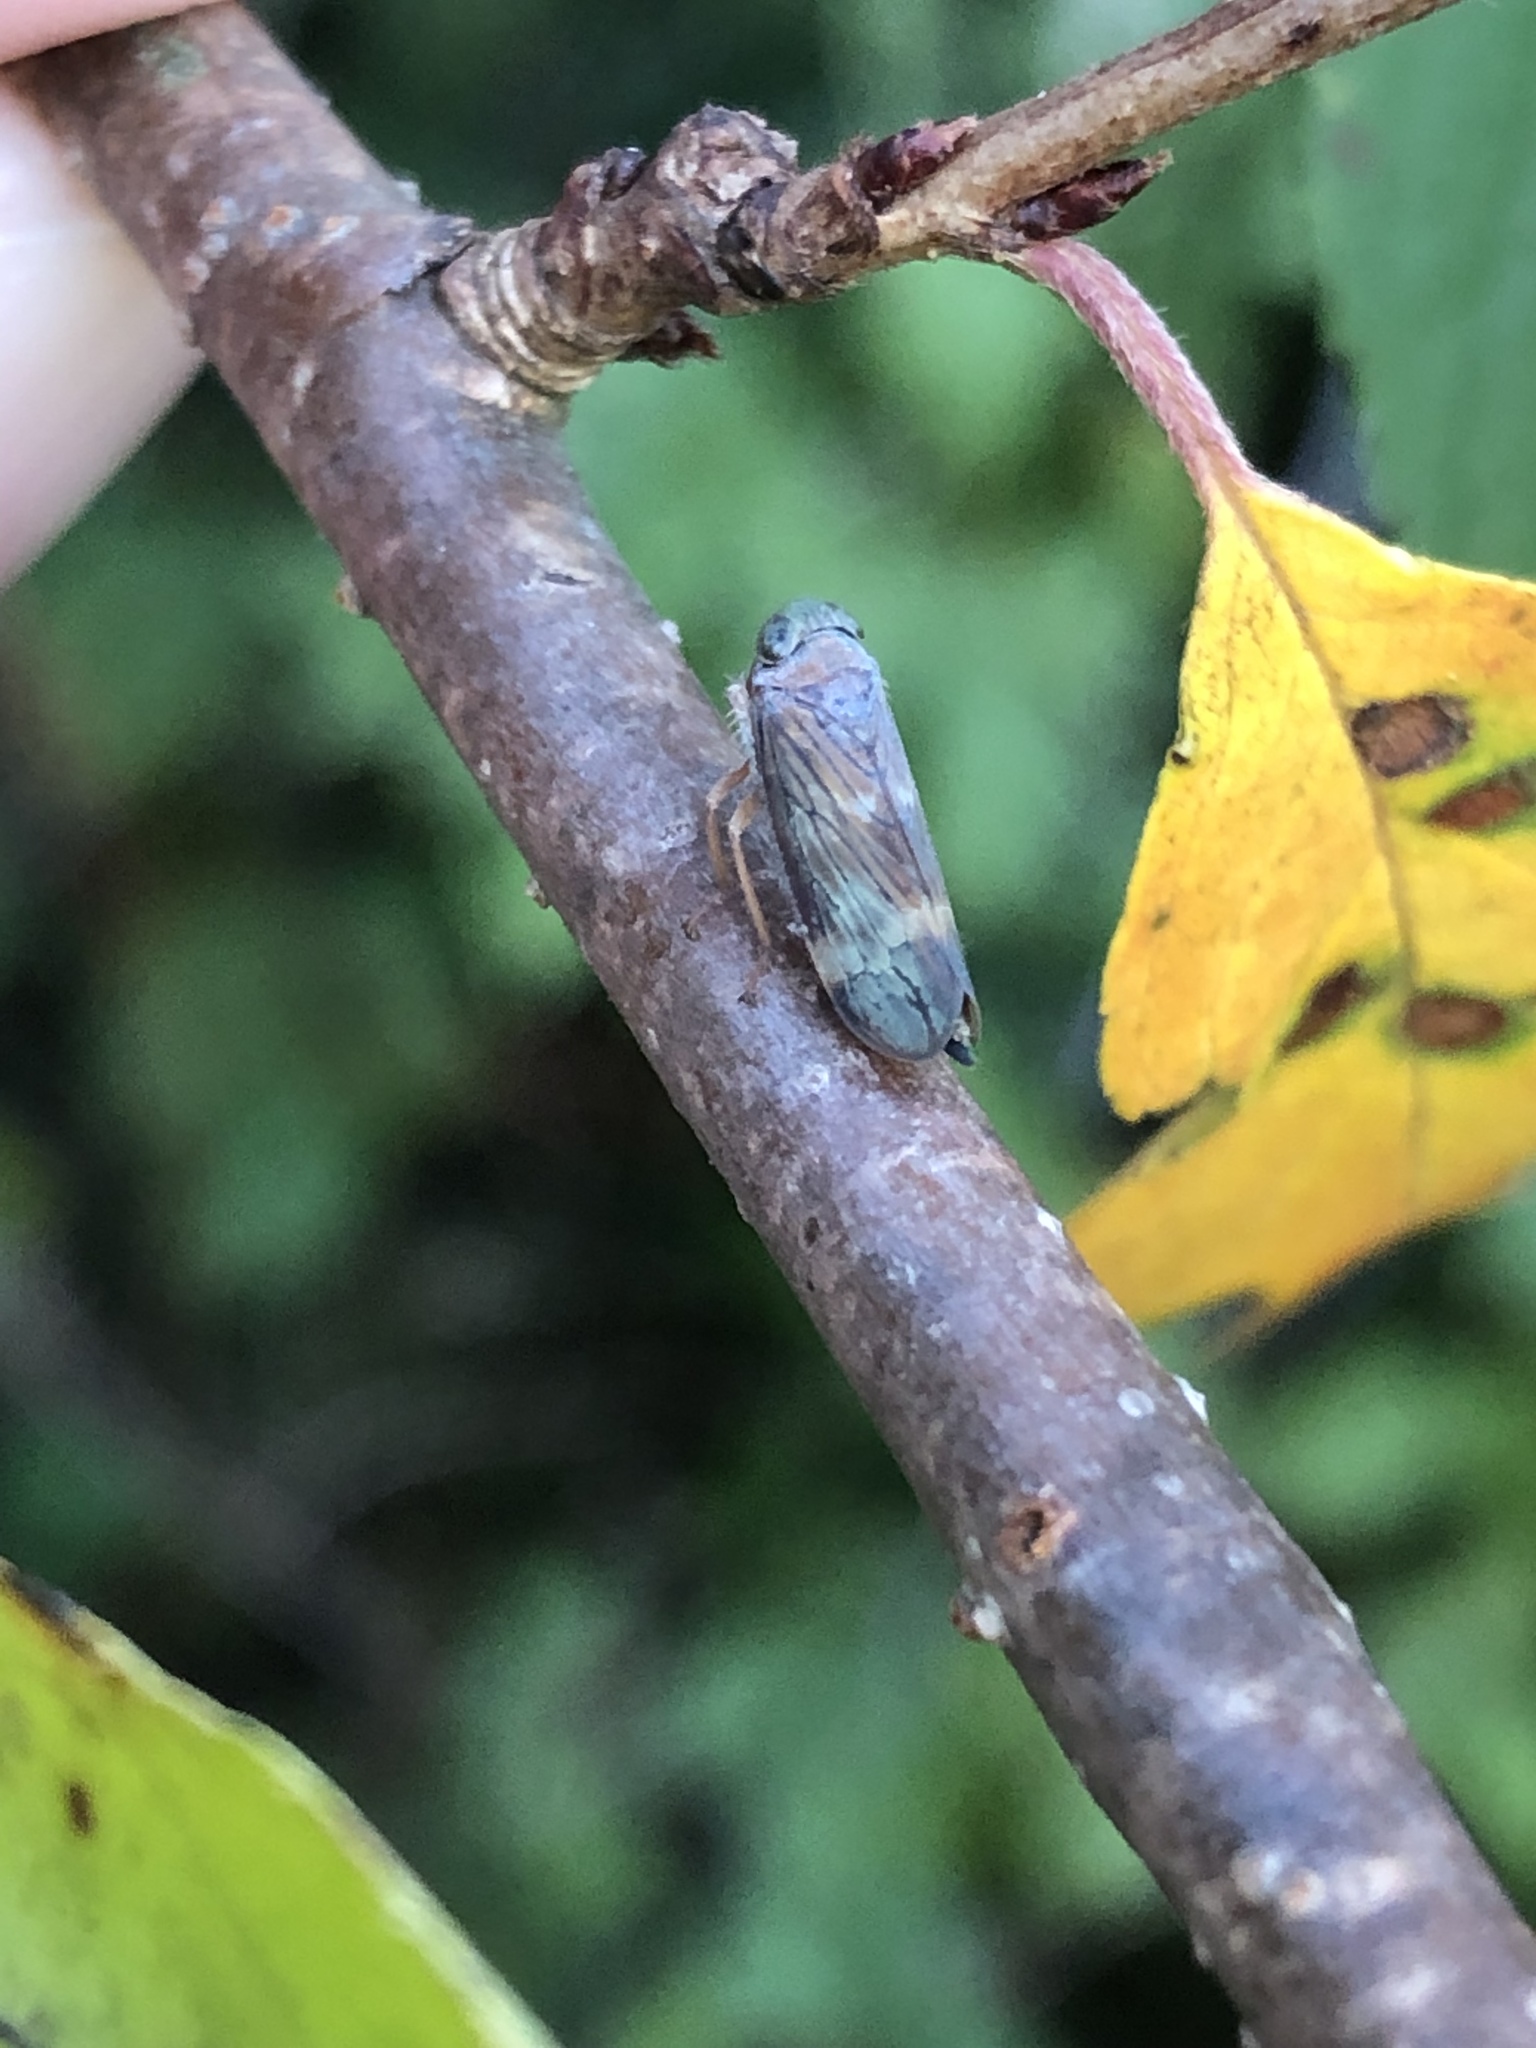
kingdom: Animalia
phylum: Arthropoda
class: Insecta
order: Hemiptera
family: Cicadellidae
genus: Jikradia
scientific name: Jikradia olitoria
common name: Coppery leafhopper
